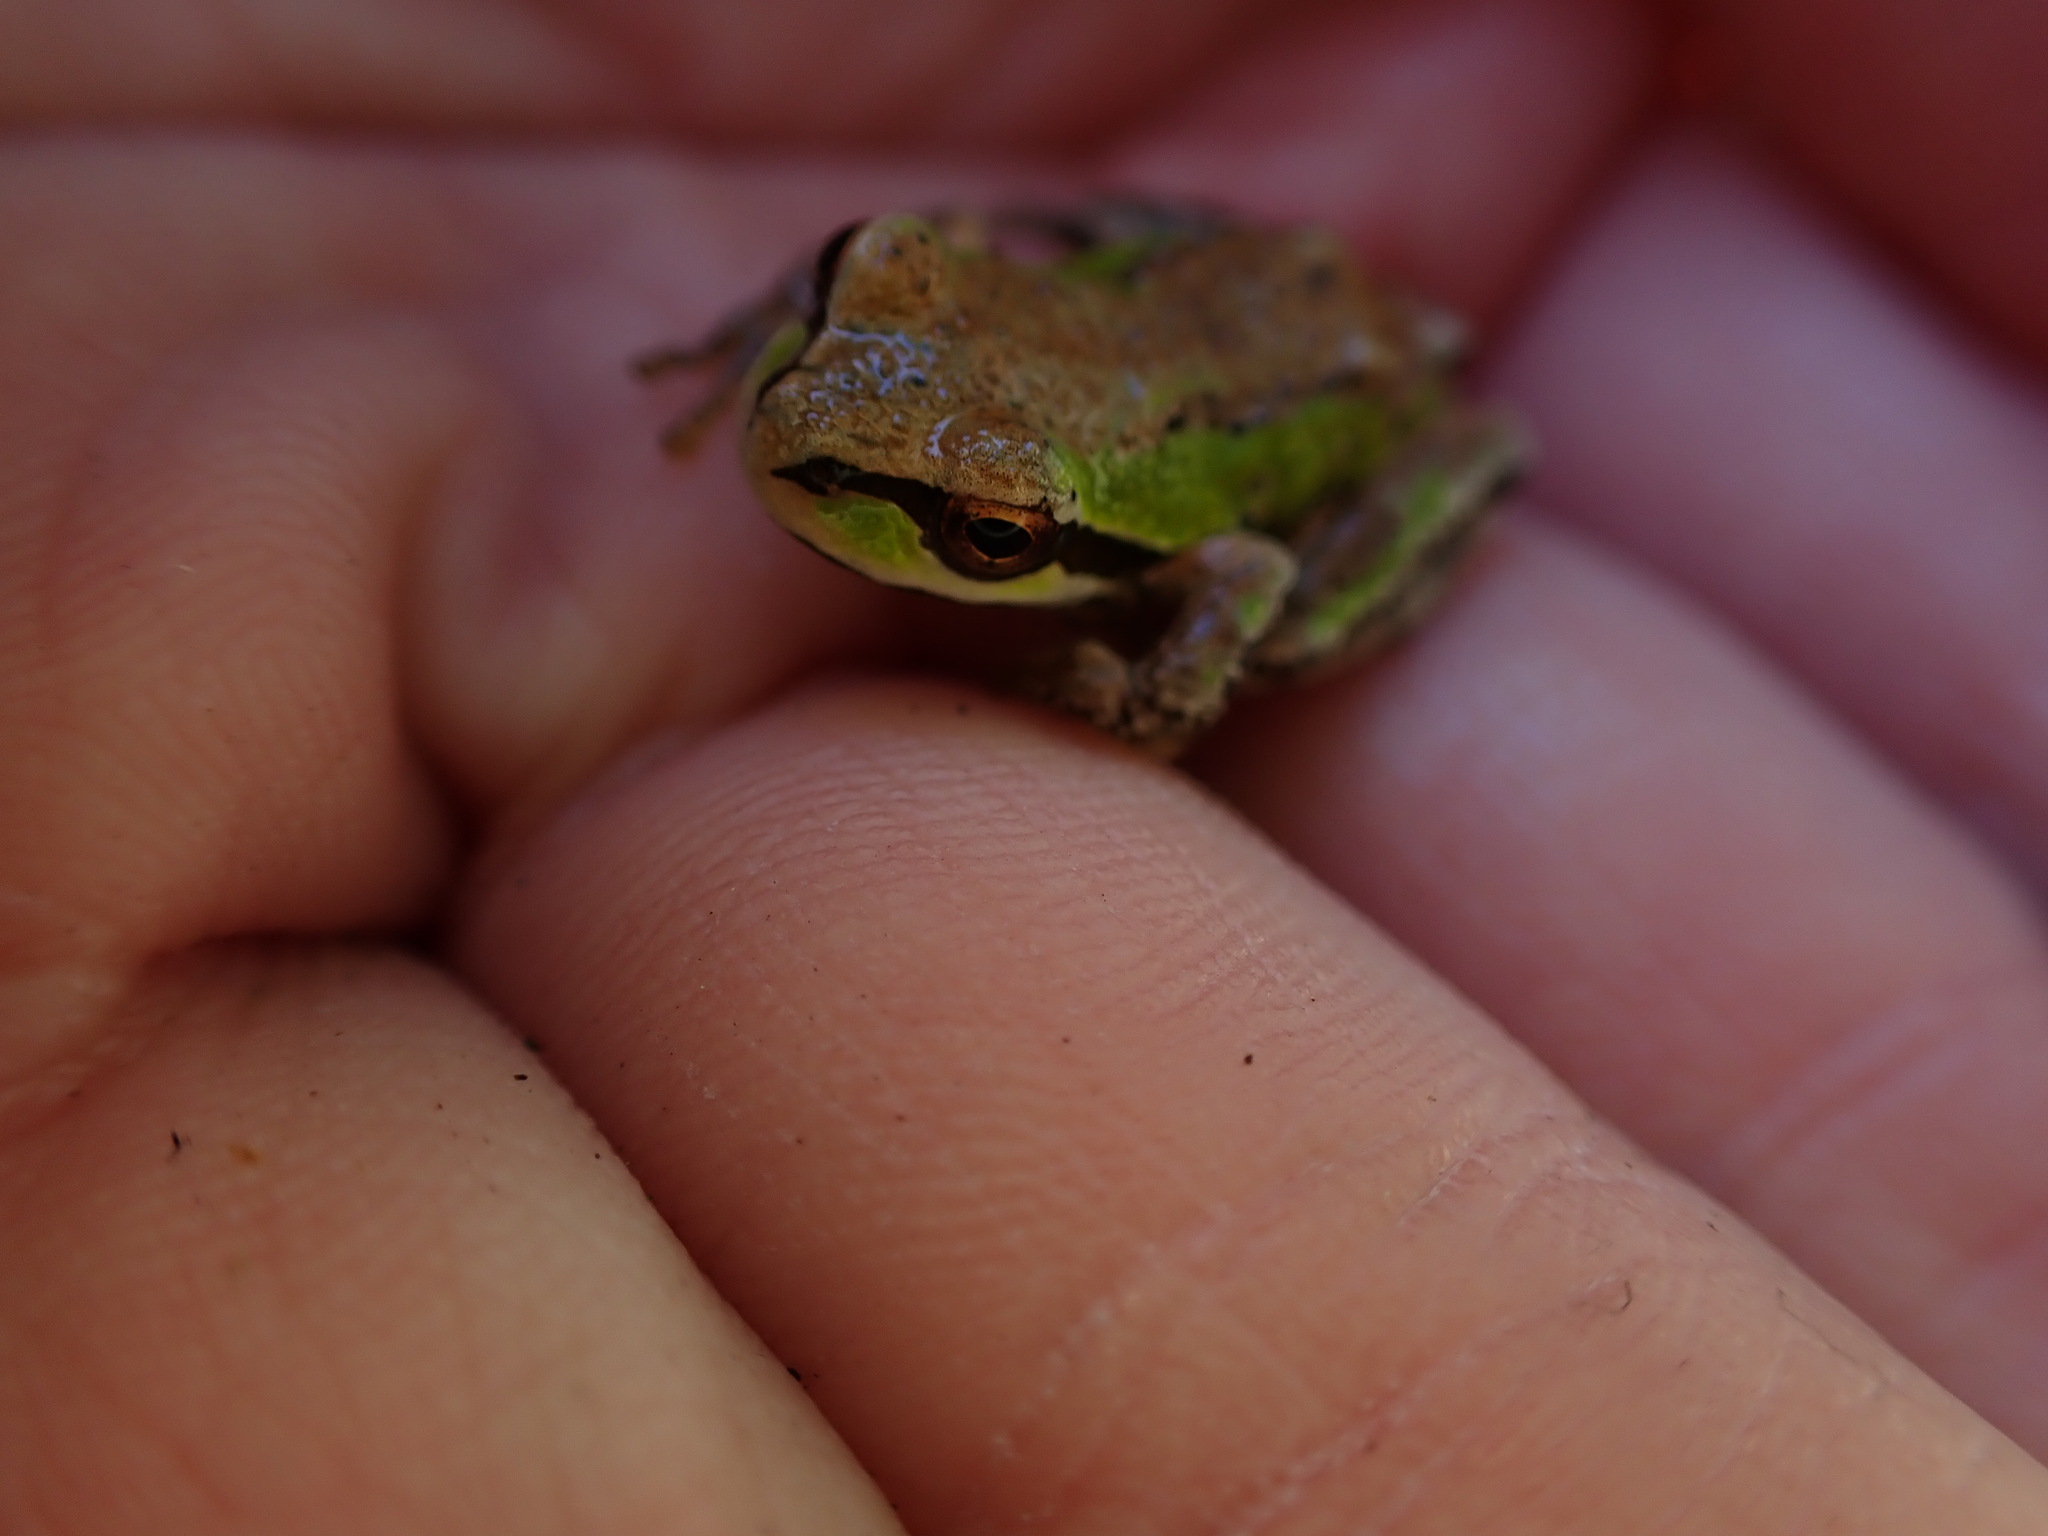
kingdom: Animalia
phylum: Chordata
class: Amphibia
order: Anura
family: Hylidae
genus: Pseudacris
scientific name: Pseudacris regilla
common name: Pacific chorus frog
